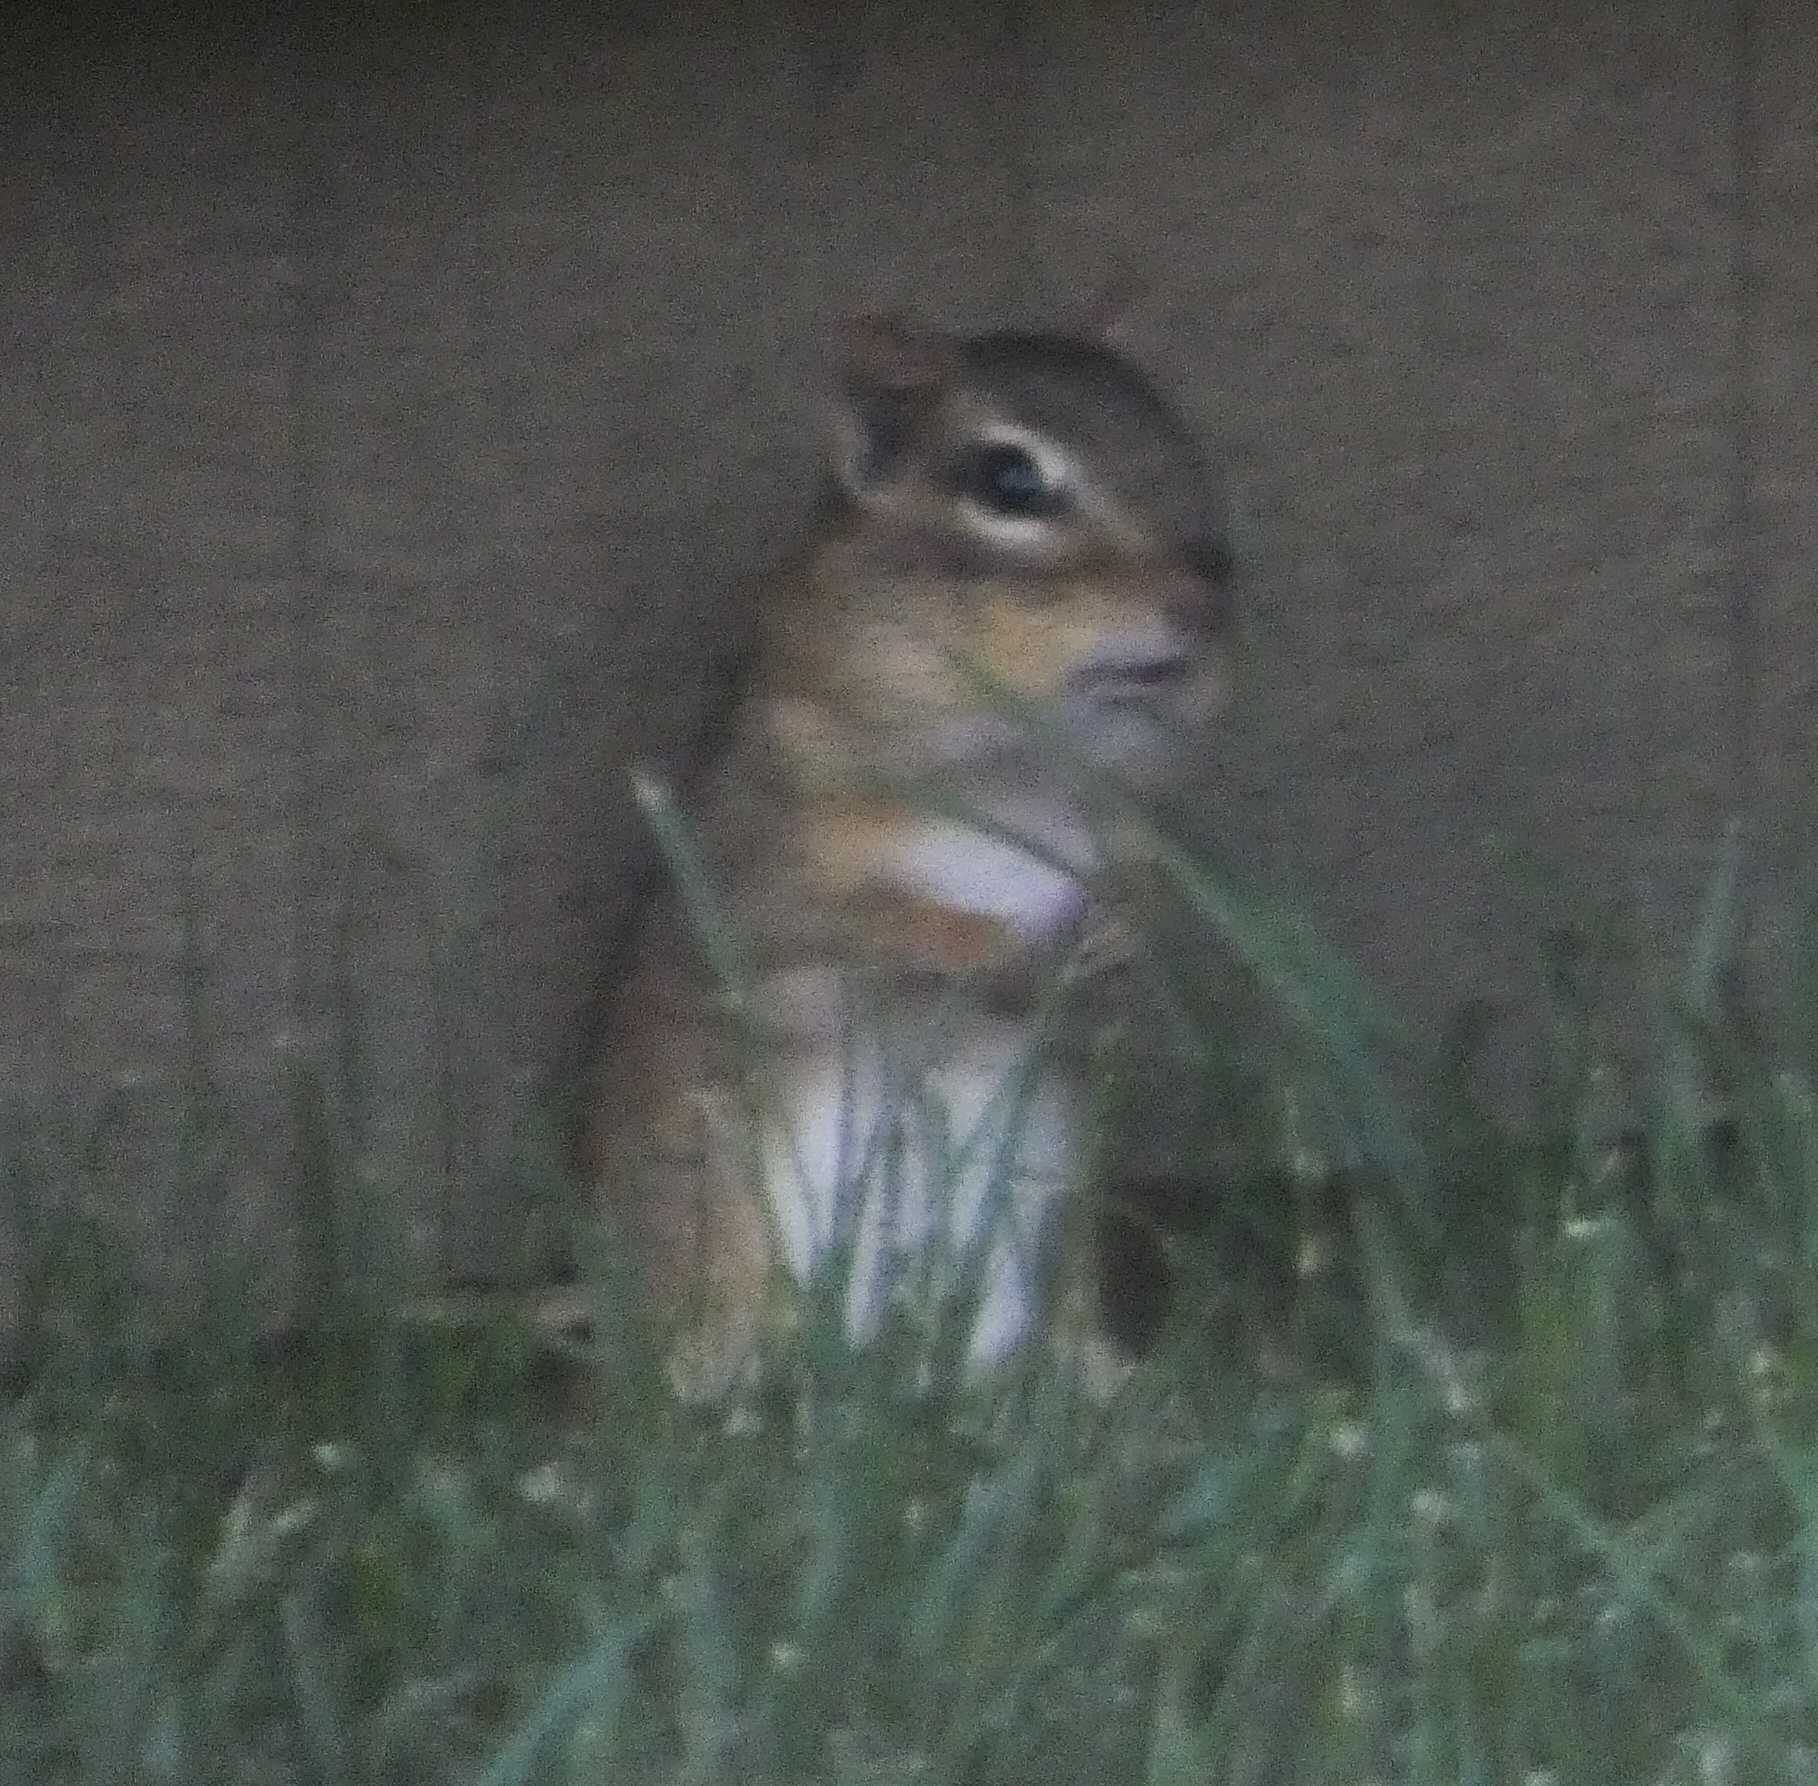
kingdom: Animalia
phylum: Chordata
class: Mammalia
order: Rodentia
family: Sciuridae
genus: Tamias
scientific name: Tamias striatus
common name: Eastern chipmunk
